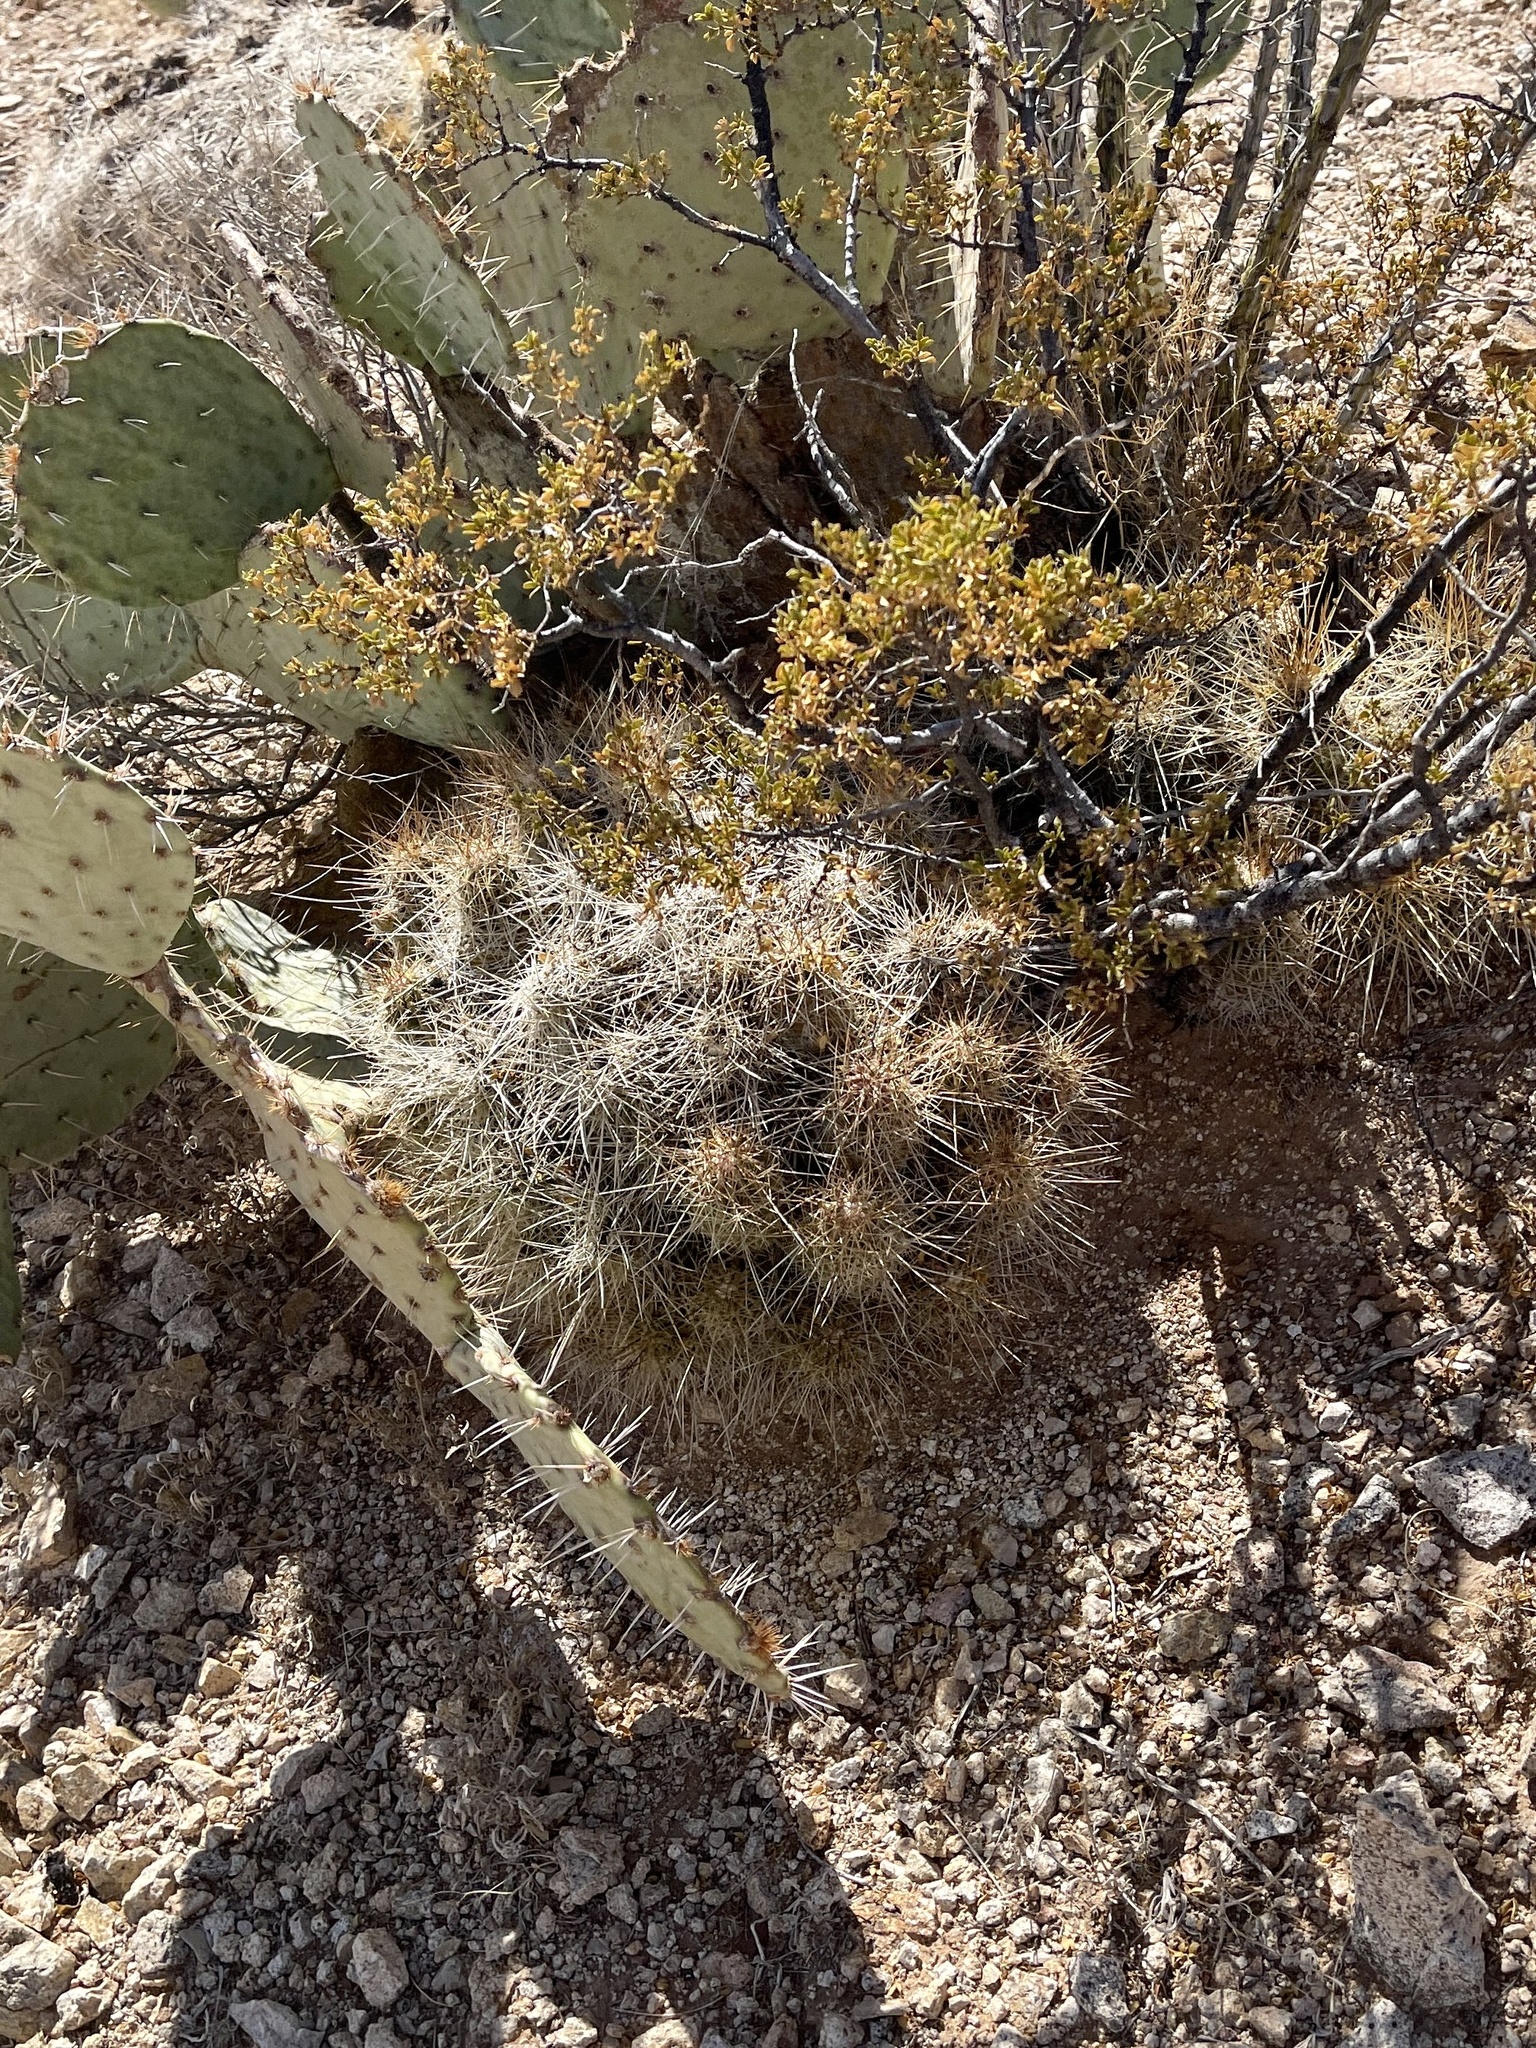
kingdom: Plantae
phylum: Tracheophyta
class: Magnoliopsida
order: Caryophyllales
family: Cactaceae
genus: Echinocereus
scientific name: Echinocereus stramineus
